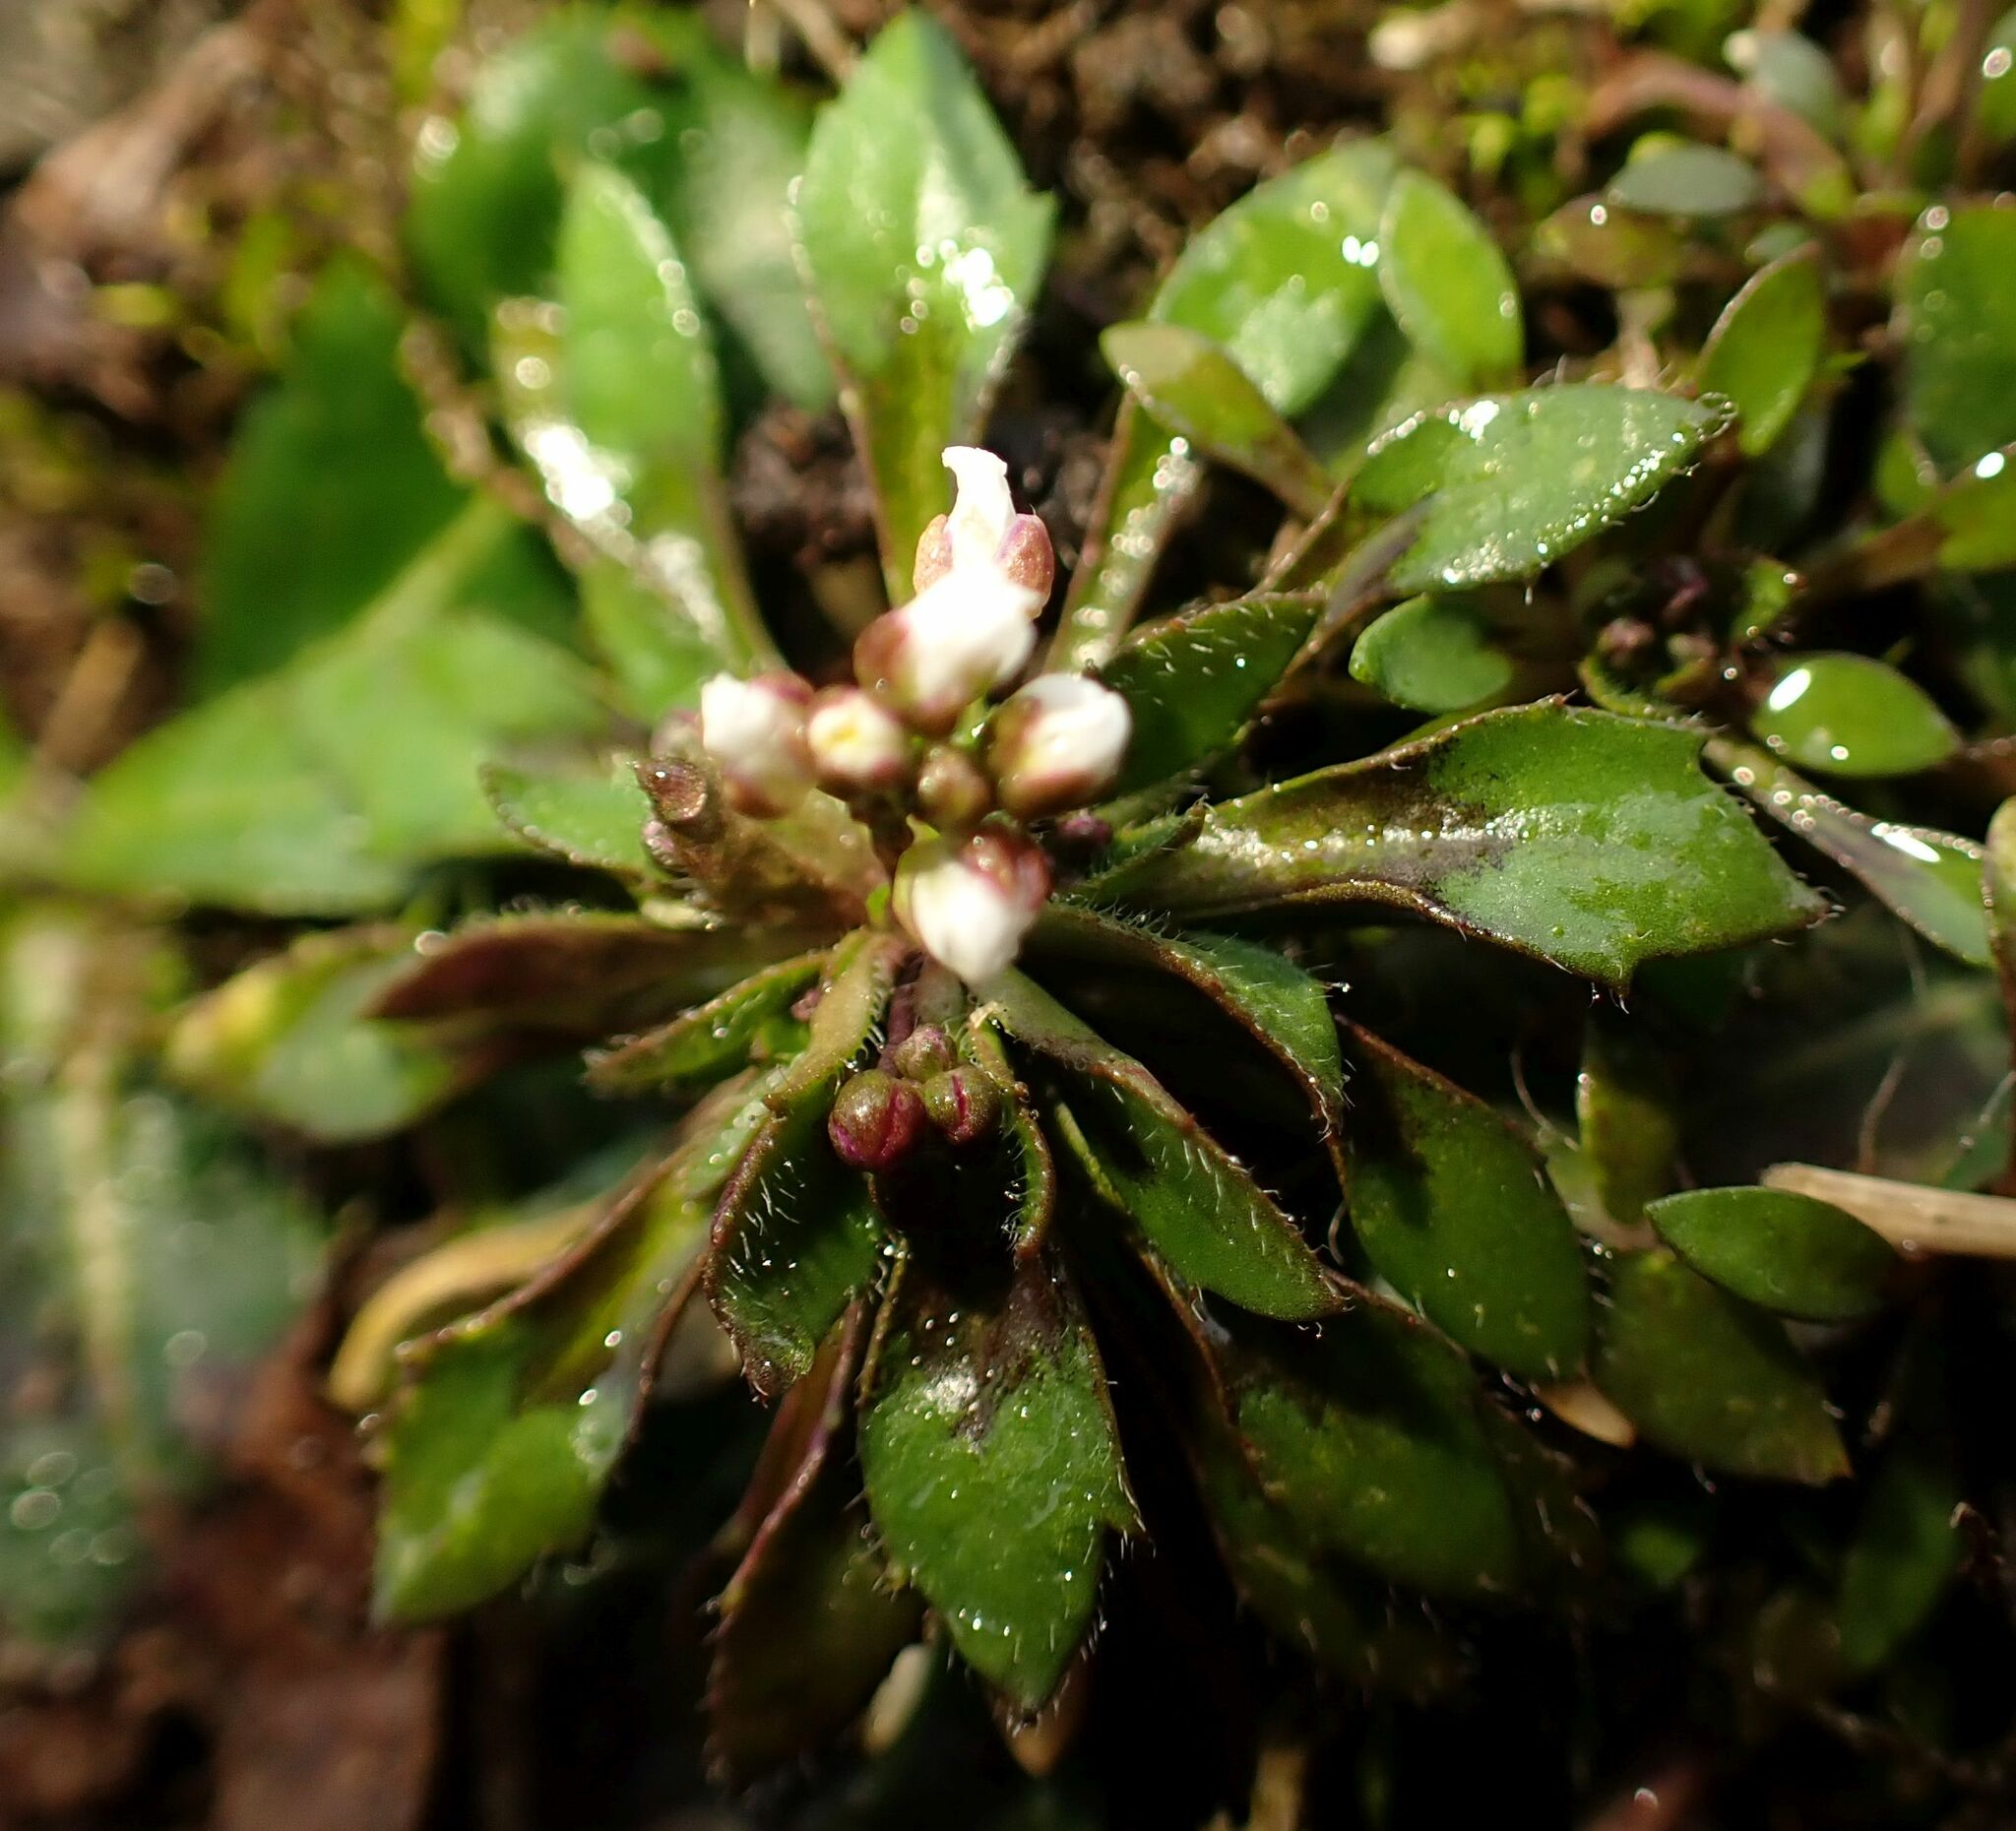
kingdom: Plantae
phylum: Tracheophyta
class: Magnoliopsida
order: Brassicales
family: Brassicaceae
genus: Draba
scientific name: Draba verna
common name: Spring draba
